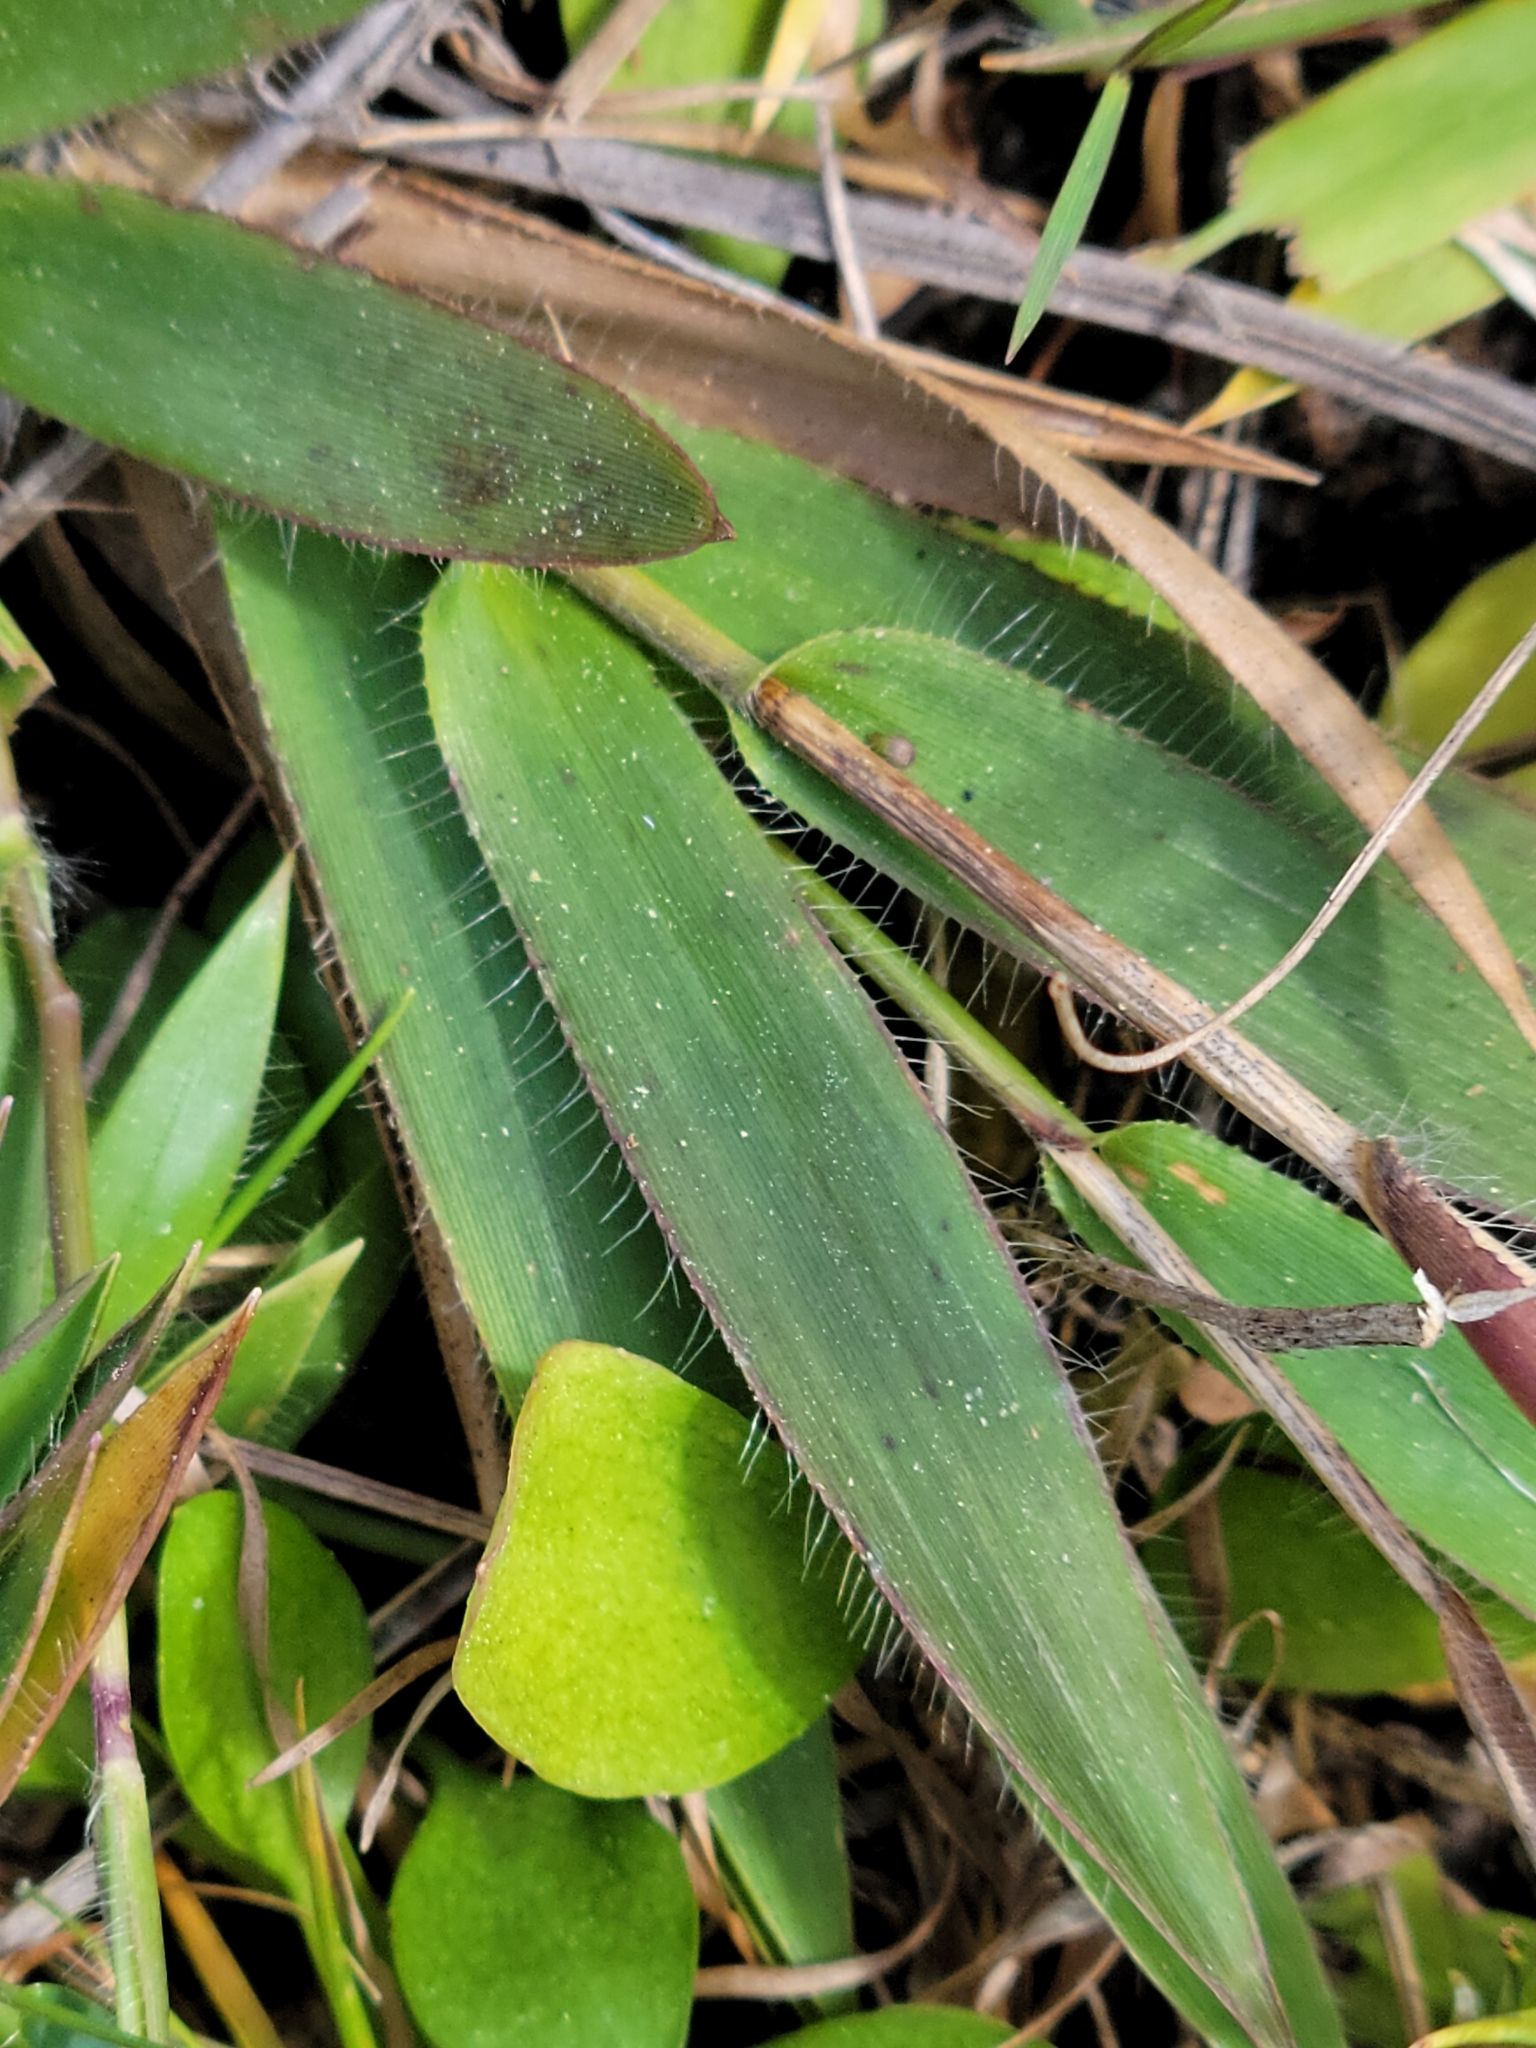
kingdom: Plantae
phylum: Tracheophyta
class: Liliopsida
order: Poales
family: Poaceae
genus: Dichanthelium
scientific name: Dichanthelium strigosum
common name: Cushion-tuft panic grass
